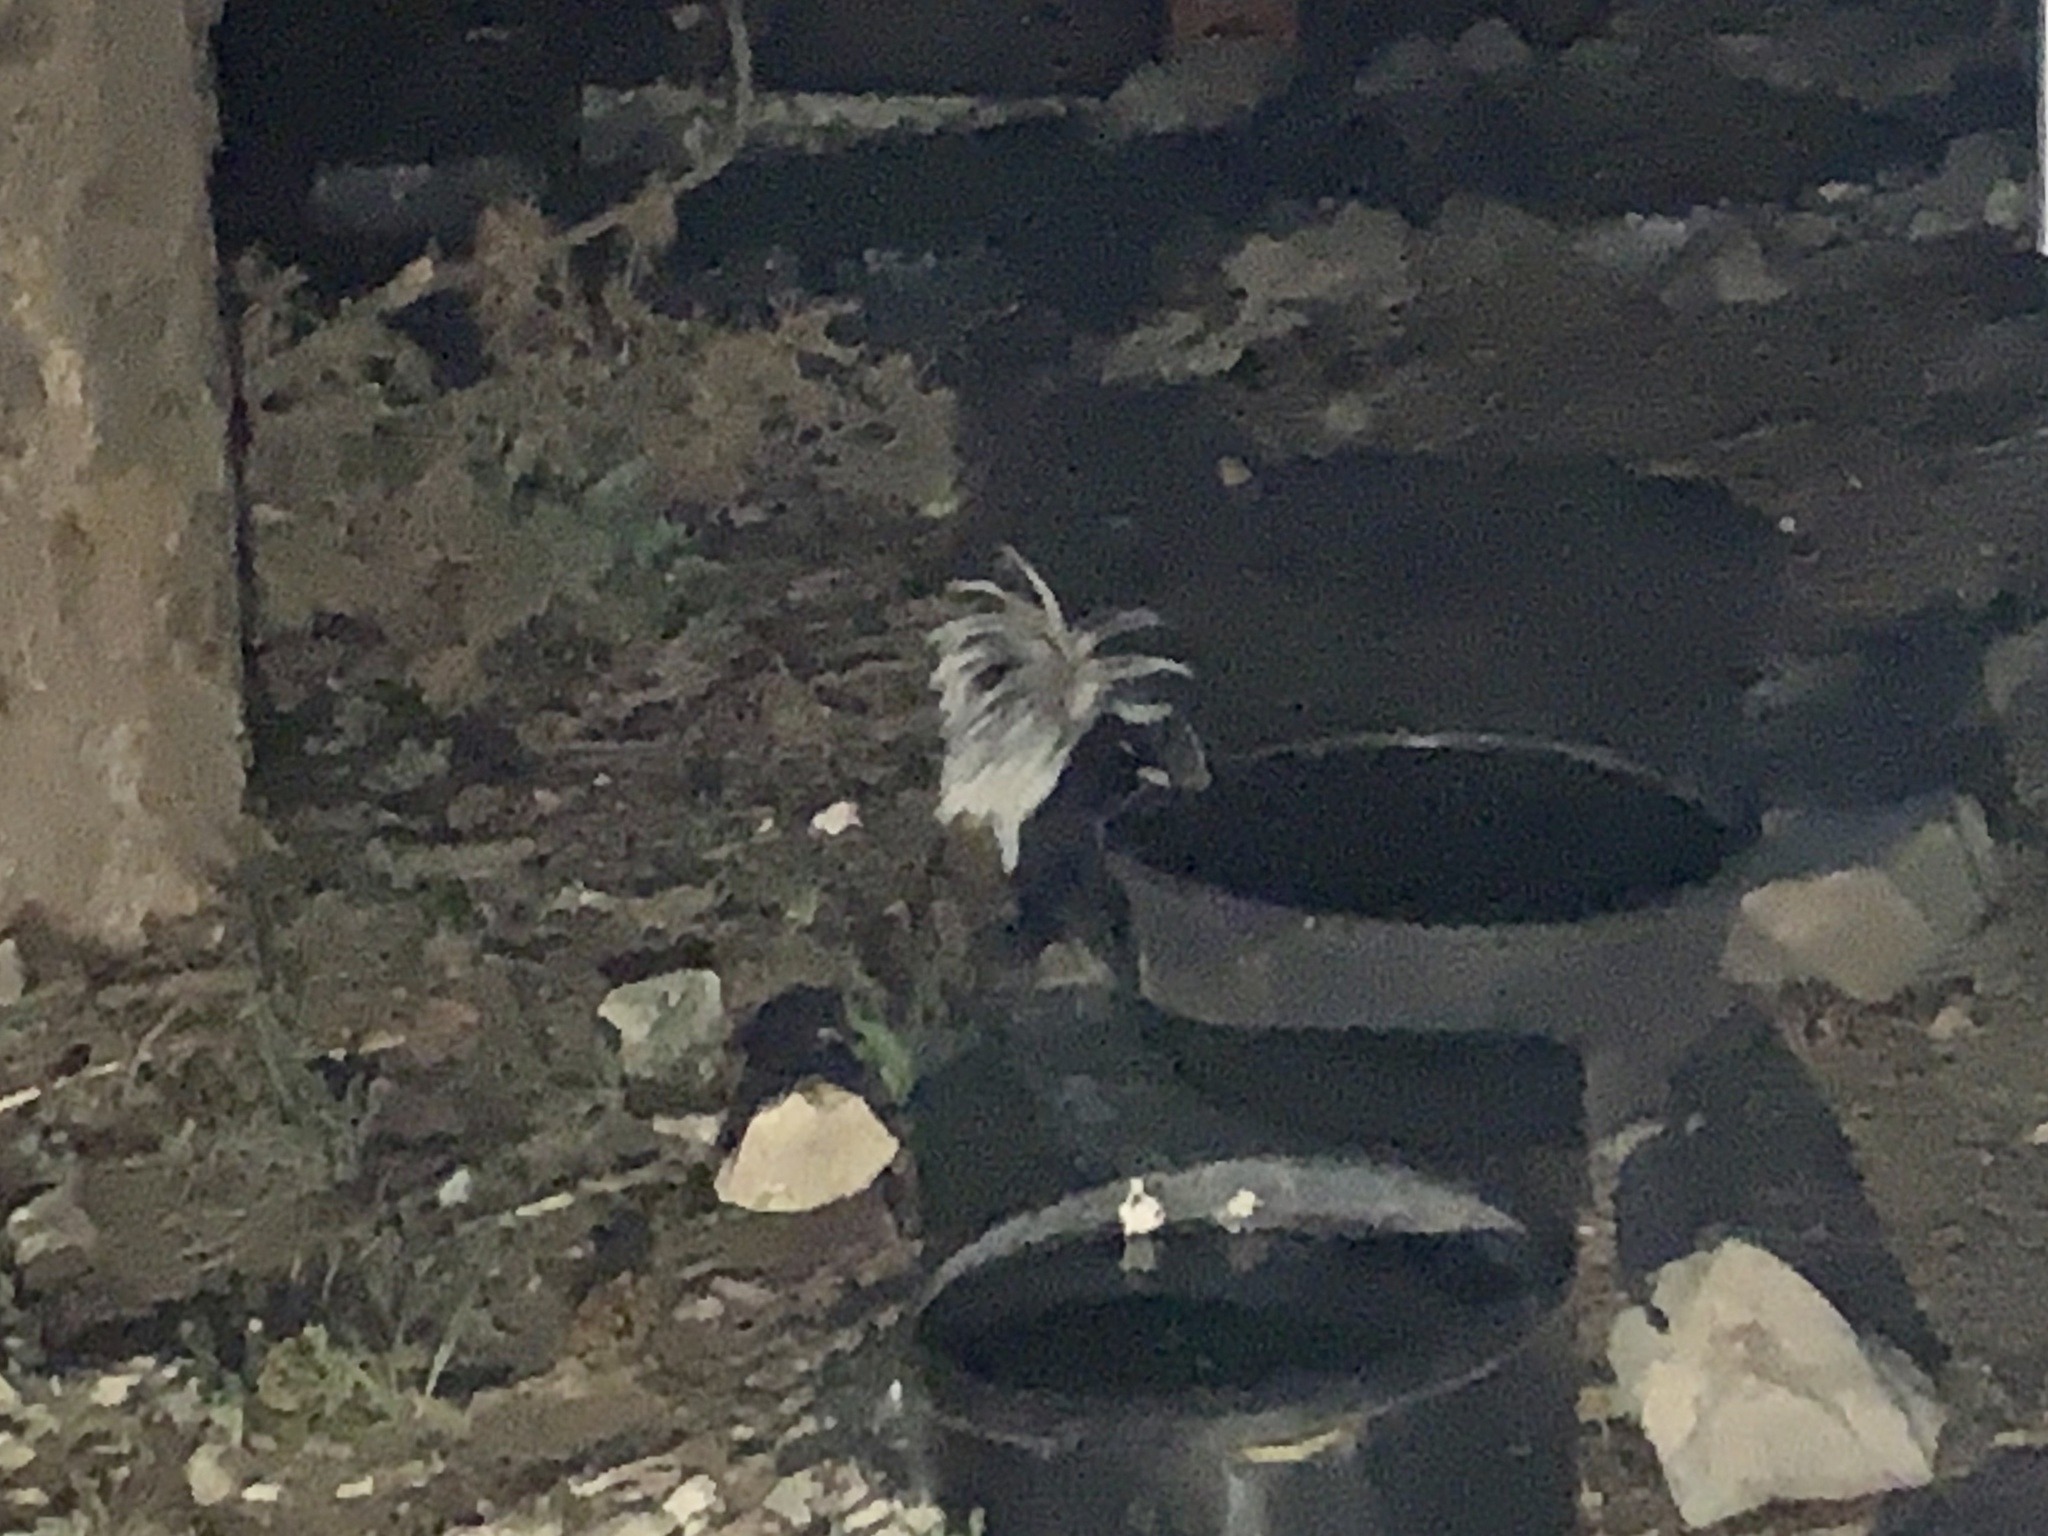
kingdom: Animalia
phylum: Chordata
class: Mammalia
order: Carnivora
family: Mephitidae
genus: Mephitis
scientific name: Mephitis mephitis
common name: Striped skunk
